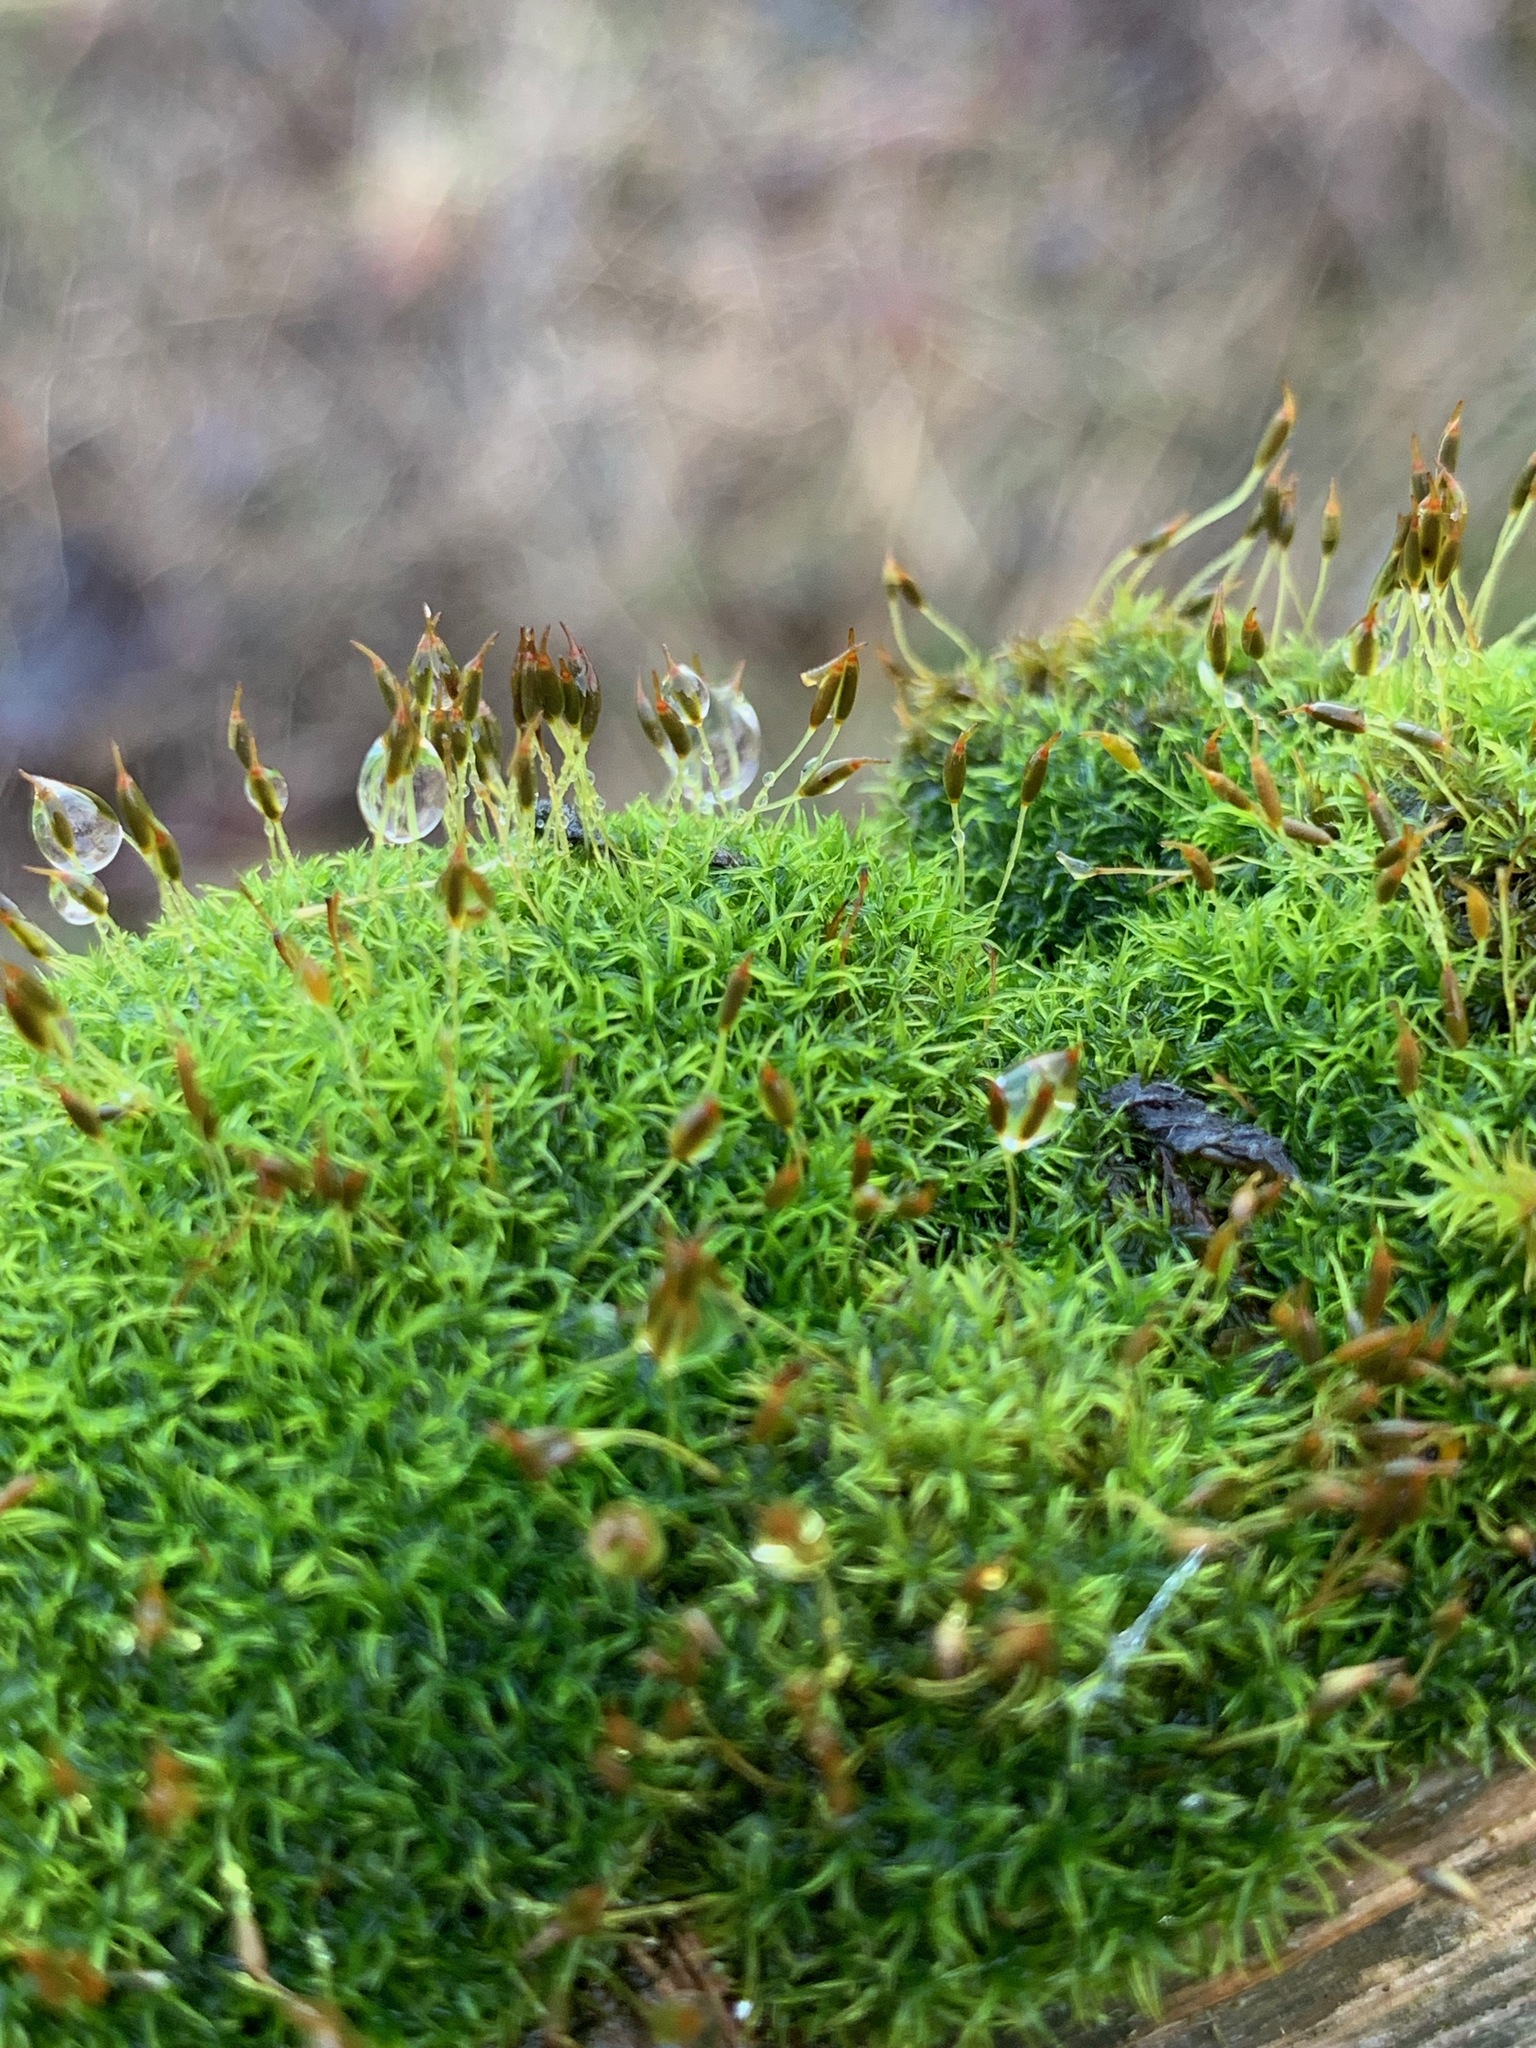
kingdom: Plantae
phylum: Bryophyta
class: Bryopsida
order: Dicranales
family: Rhabdoweisiaceae
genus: Dicranoweisia
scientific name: Dicranoweisia cirrata
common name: Common pincushion
